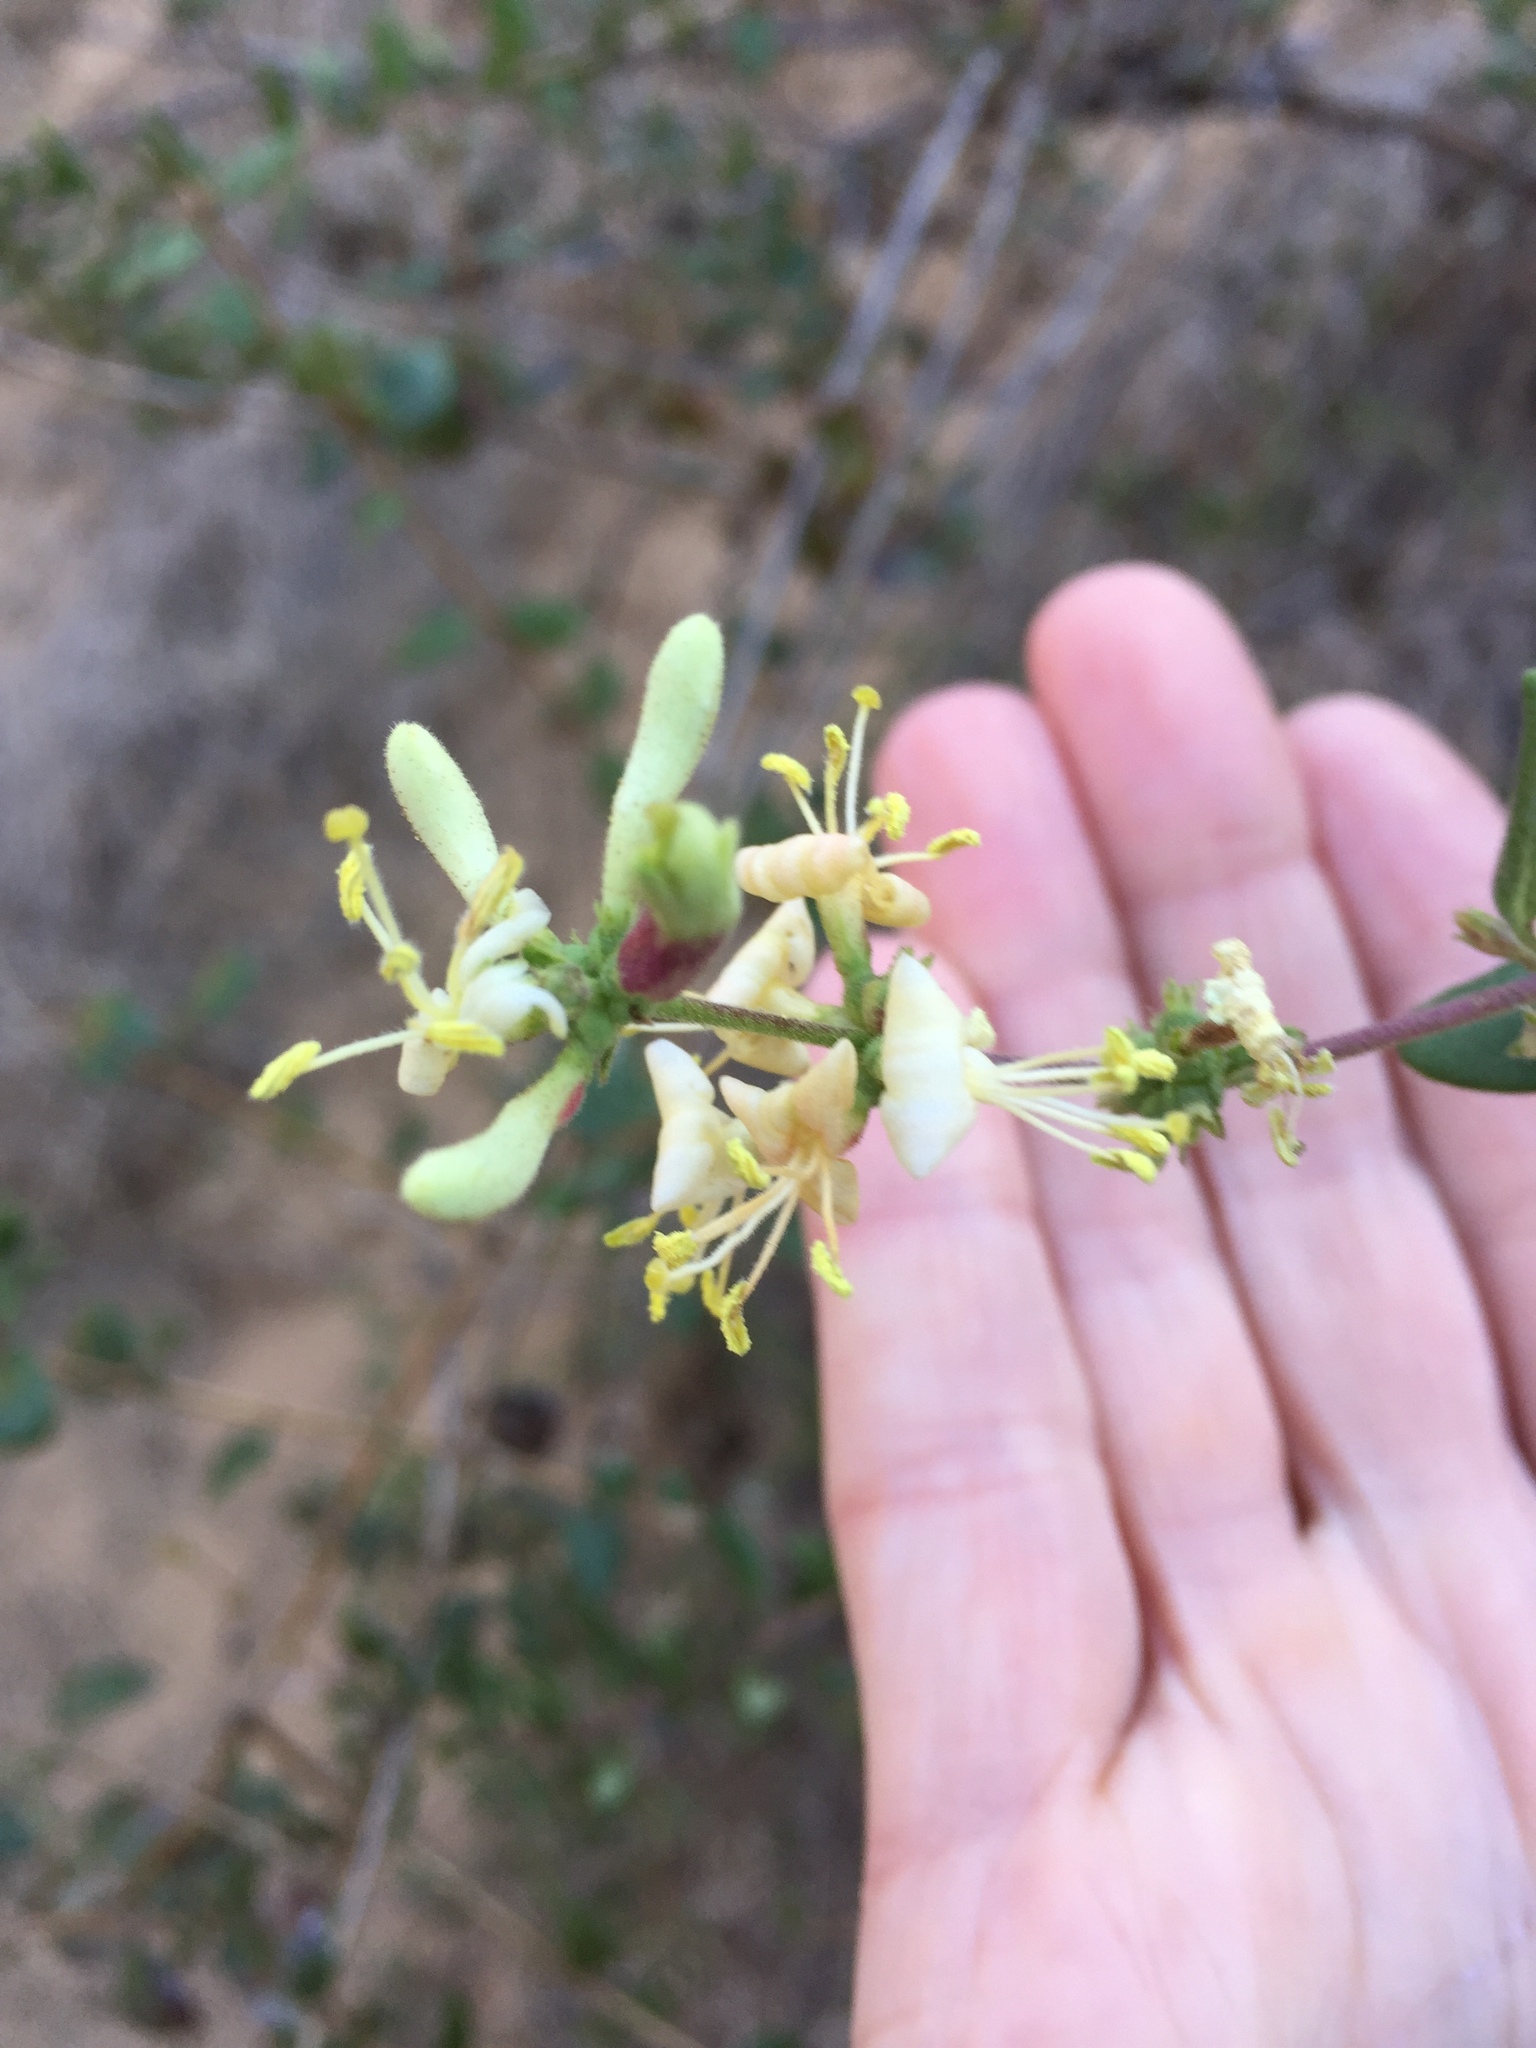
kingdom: Plantae
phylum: Tracheophyta
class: Magnoliopsida
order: Dipsacales
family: Caprifoliaceae
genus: Lonicera
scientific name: Lonicera subspicata
